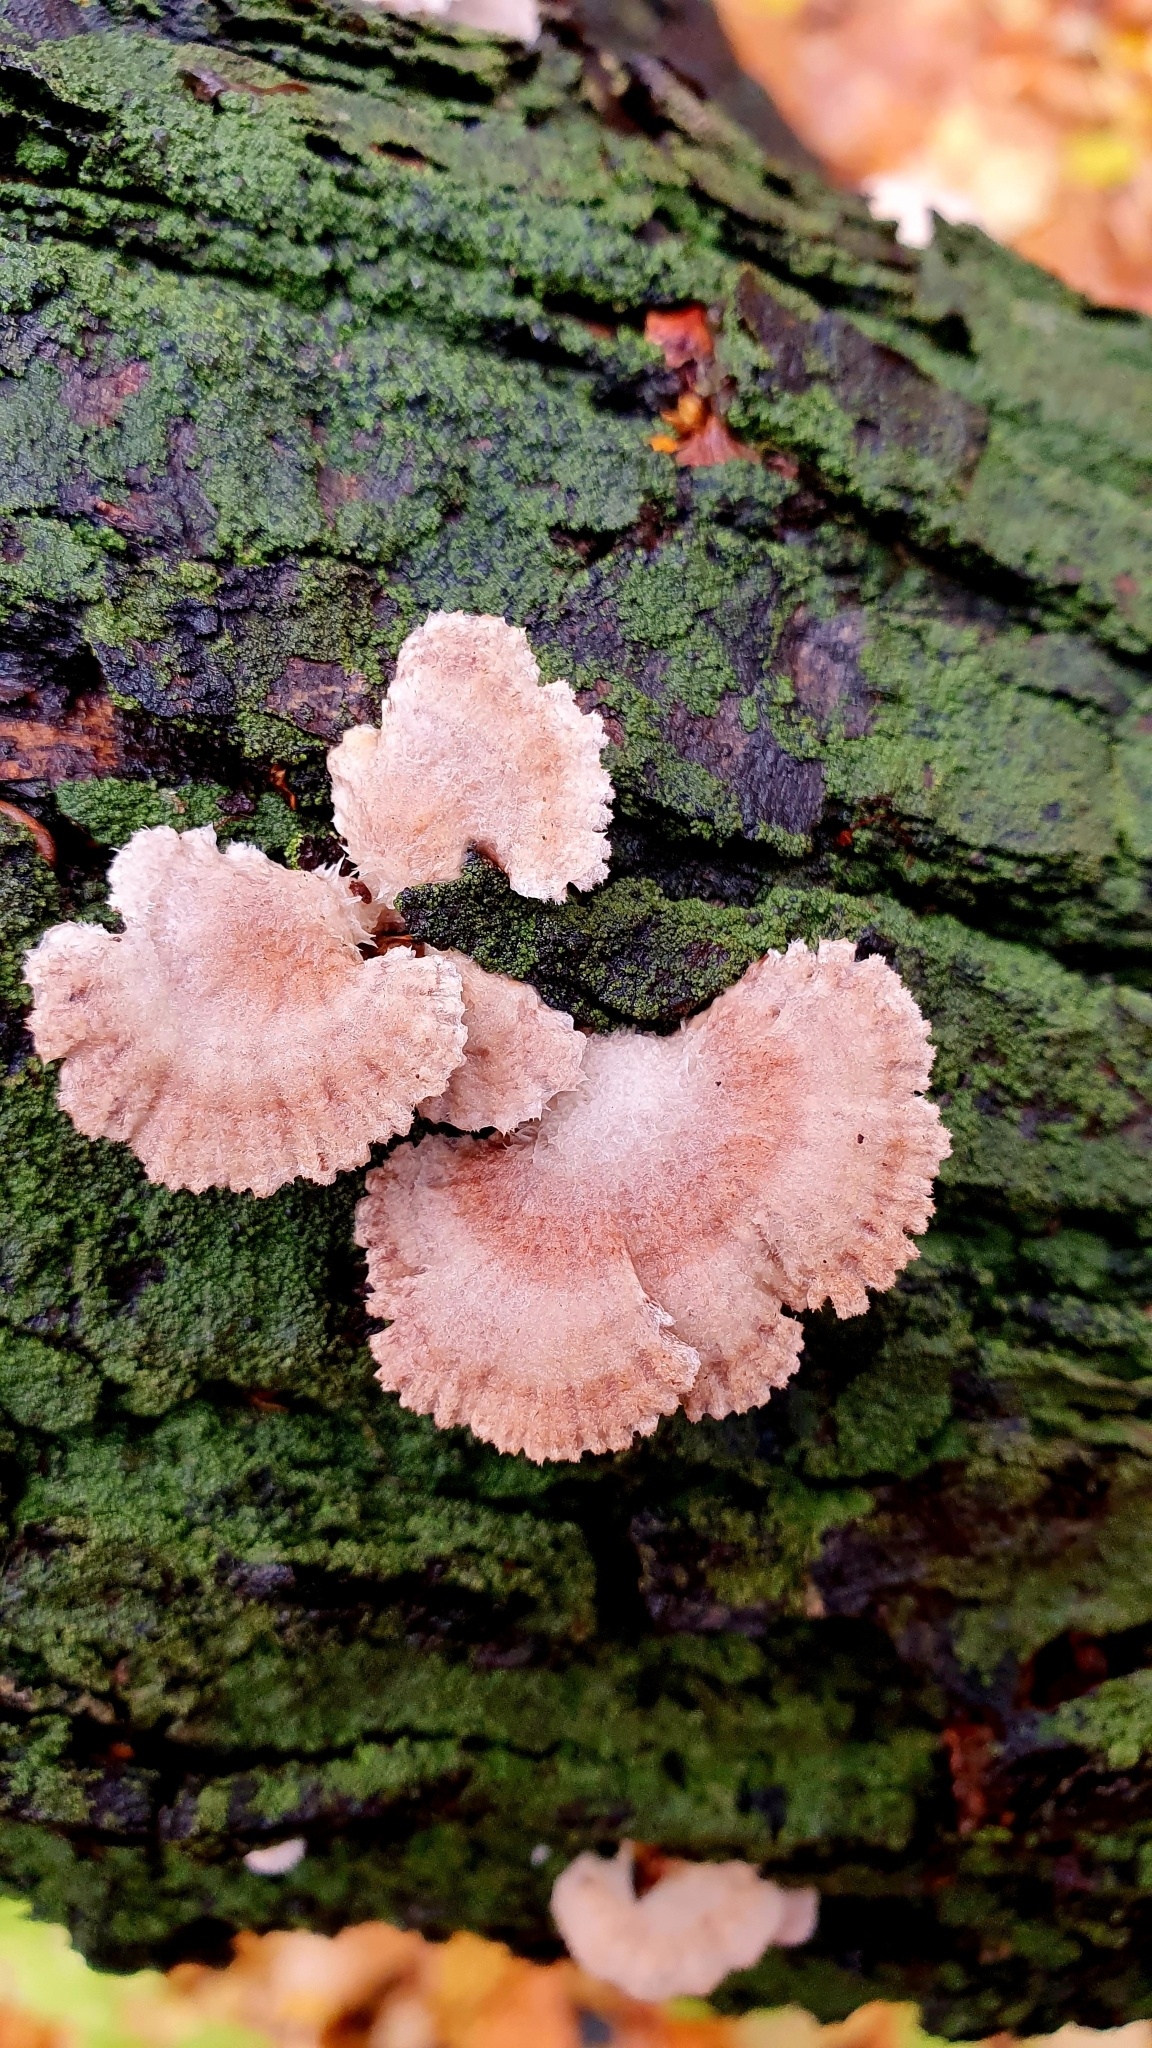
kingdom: Fungi
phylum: Basidiomycota
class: Agaricomycetes
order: Agaricales
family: Schizophyllaceae
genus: Schizophyllum
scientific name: Schizophyllum commune
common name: Common porecrust
